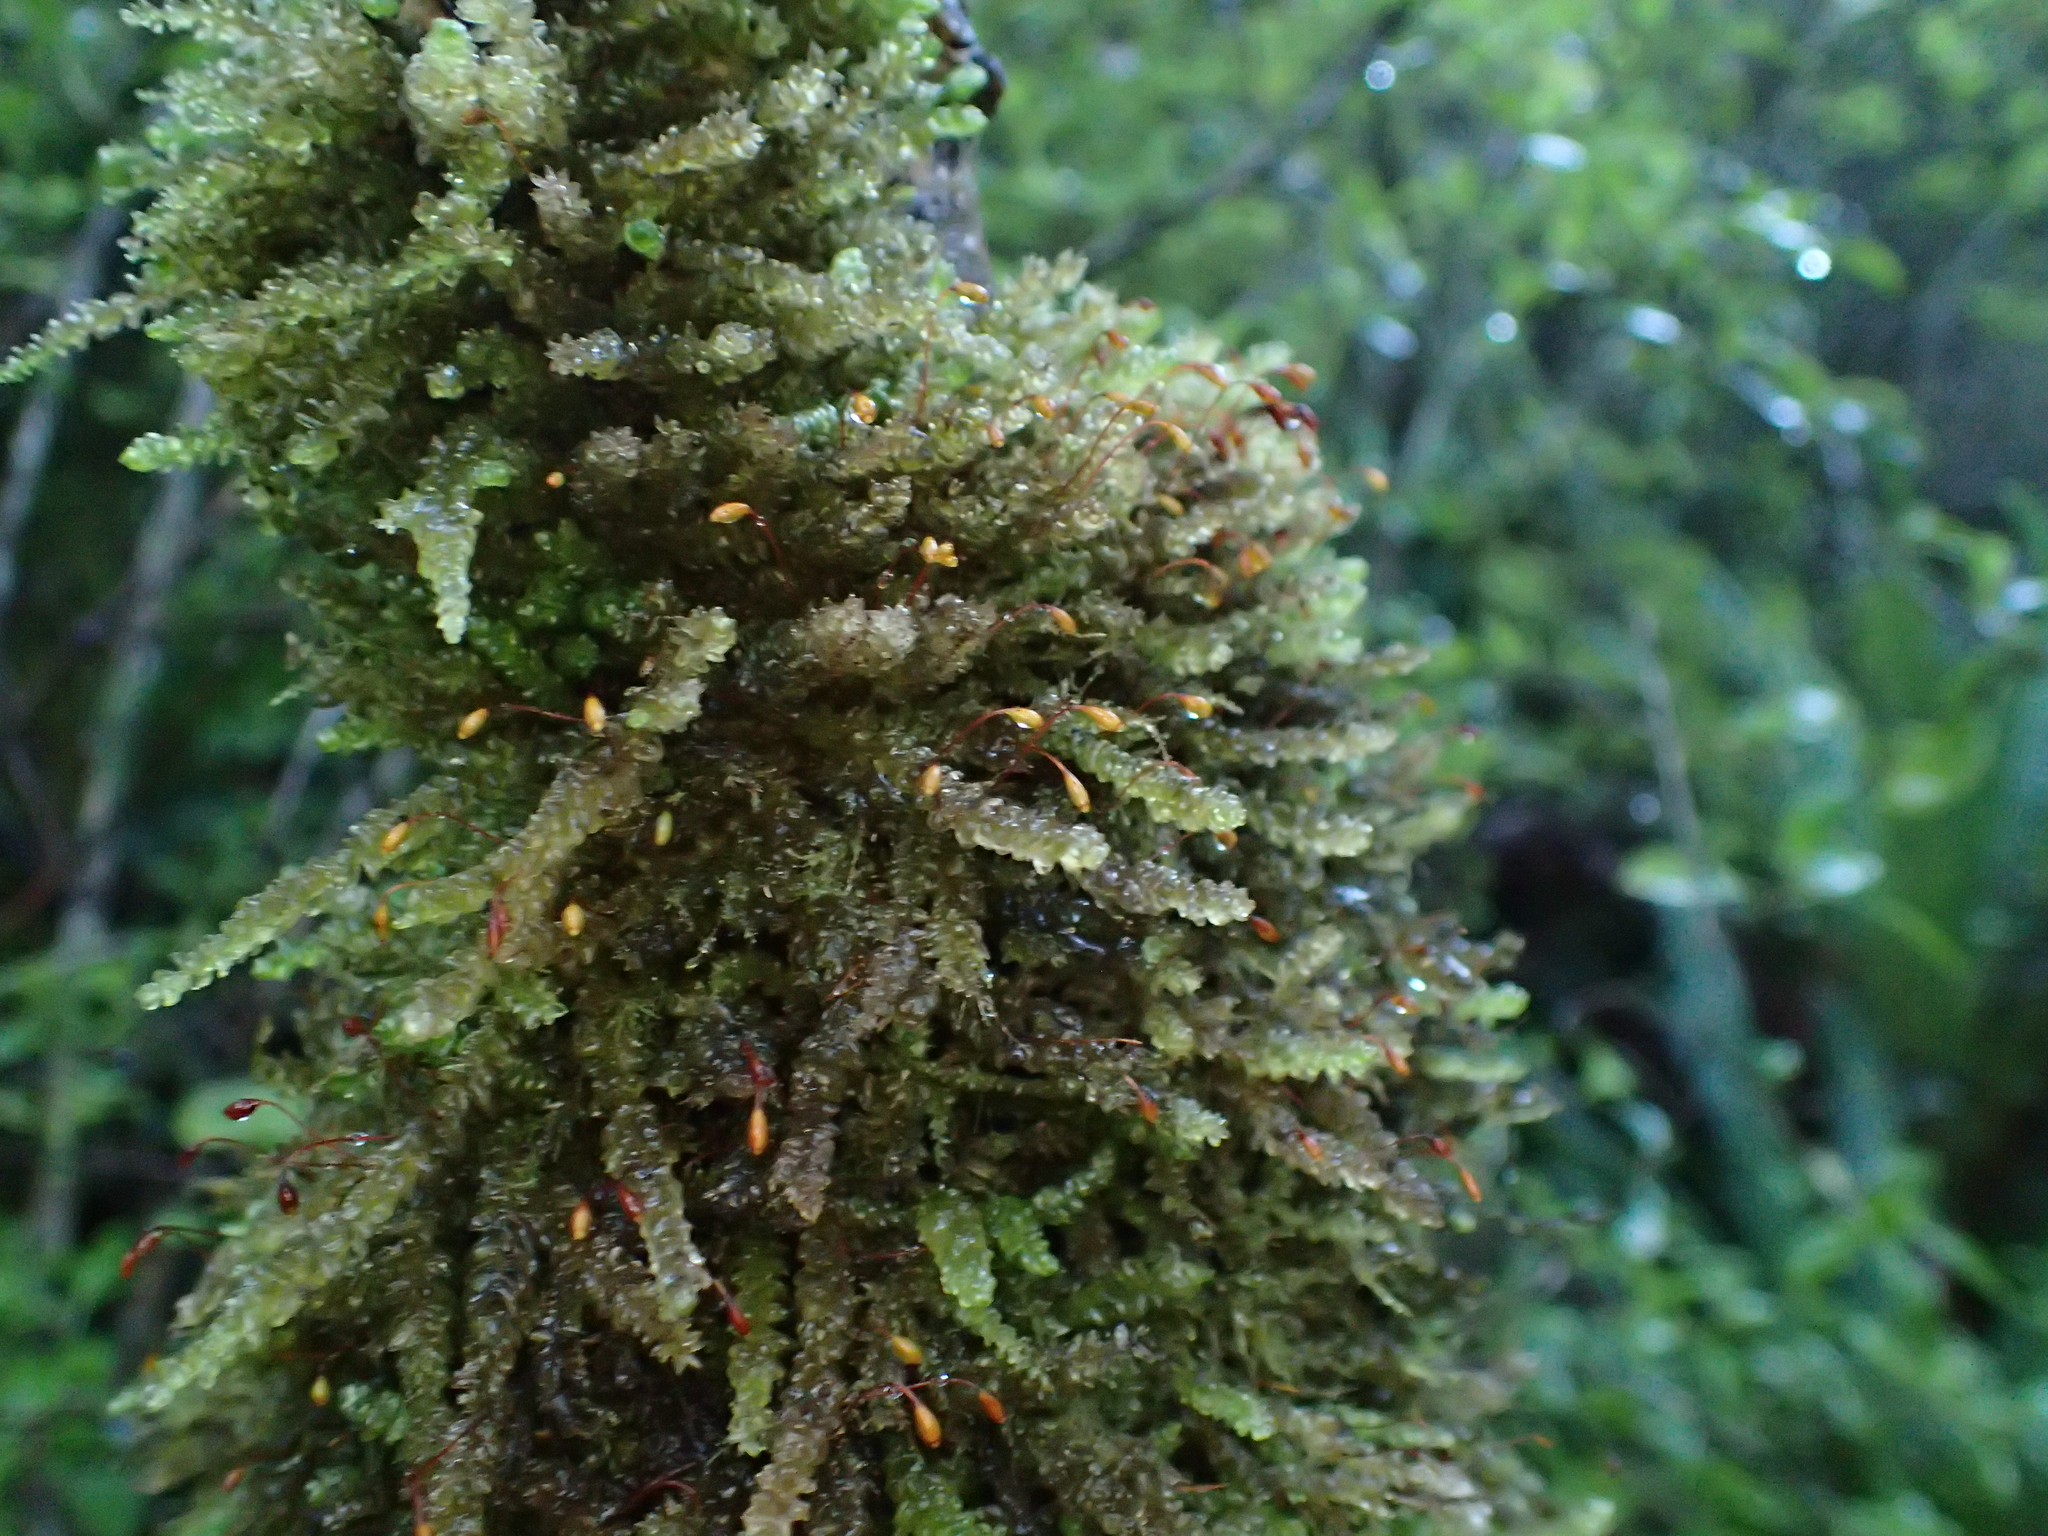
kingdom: Plantae
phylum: Bryophyta
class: Bryopsida
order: Hypnales
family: Lembophyllaceae
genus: Weymouthia
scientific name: Weymouthia cochlearifolia
